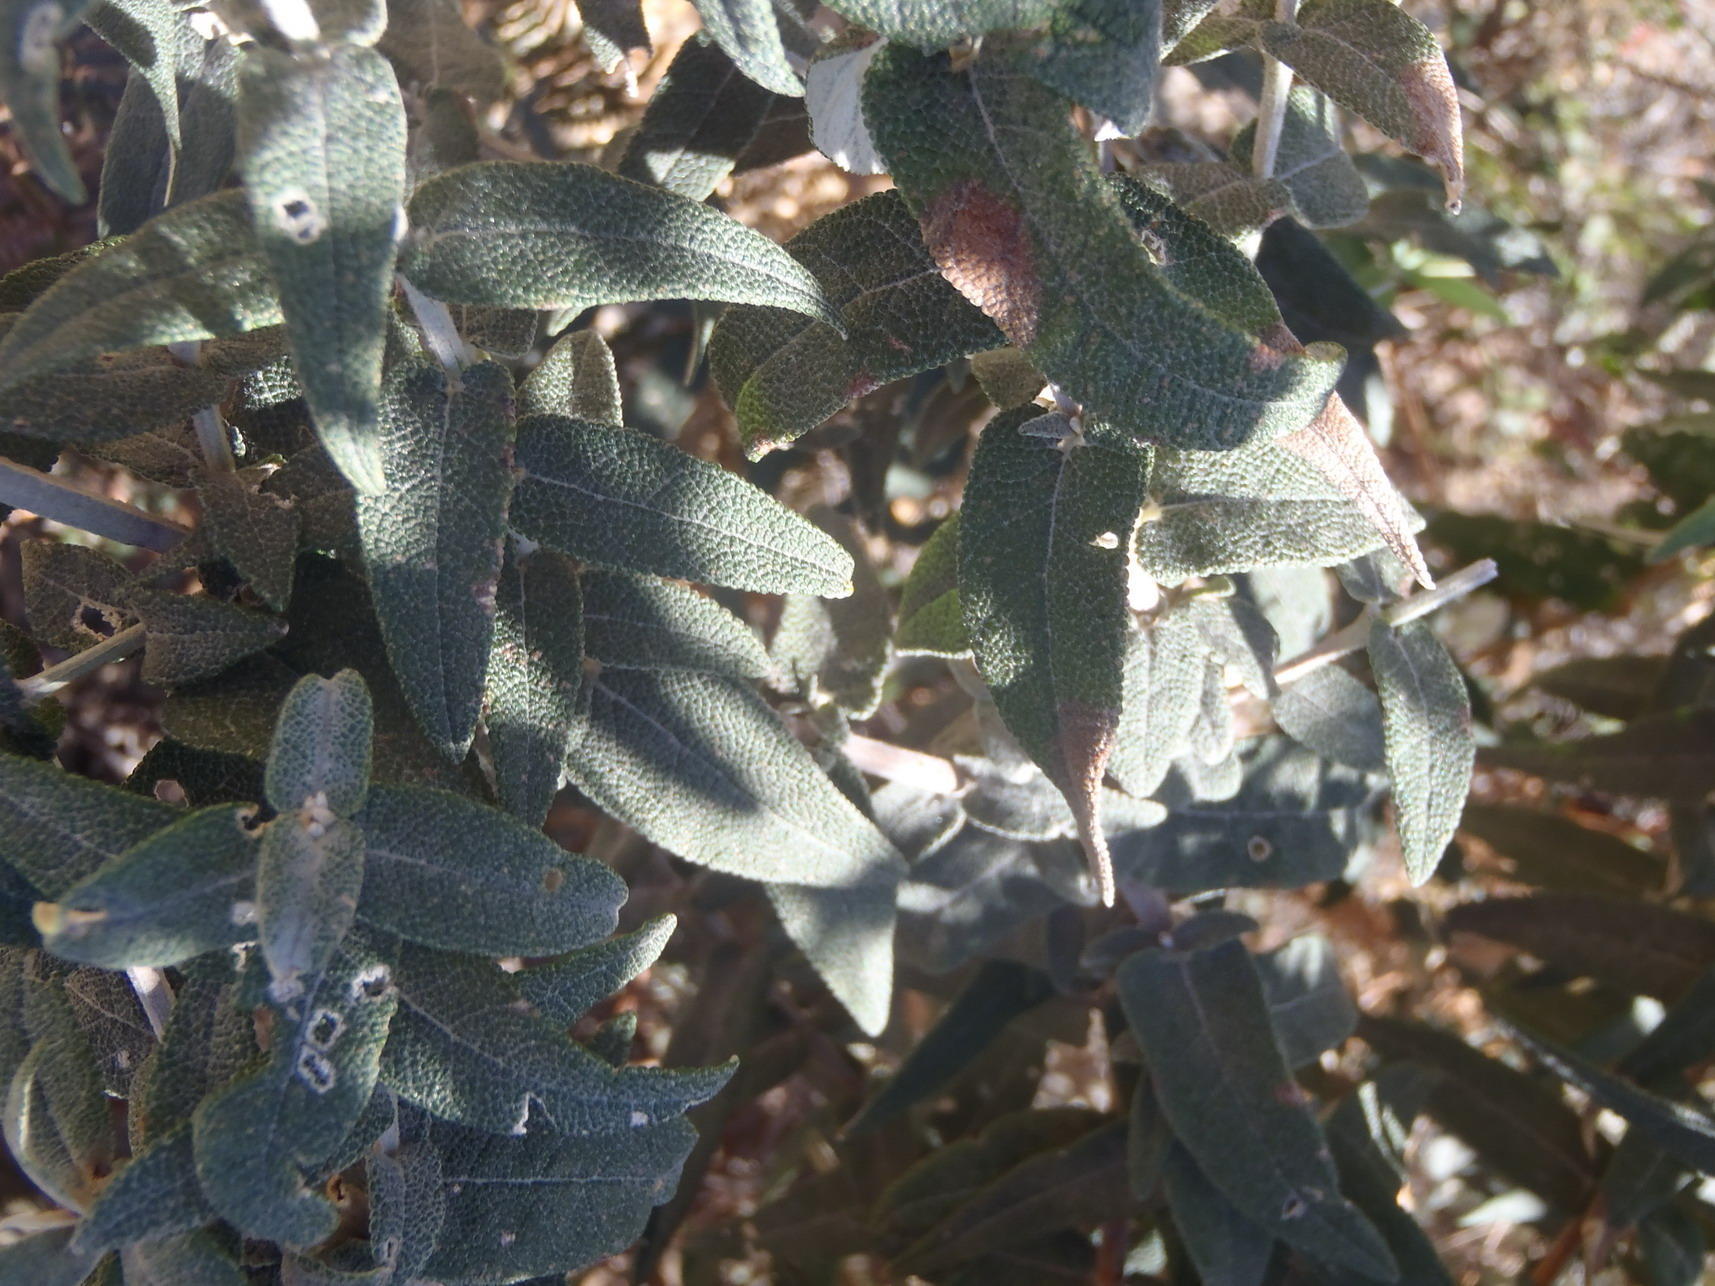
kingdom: Plantae
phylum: Tracheophyta
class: Magnoliopsida
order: Lamiales
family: Scrophulariaceae
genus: Buddleja
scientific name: Buddleja salviifolia
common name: Sagewood
